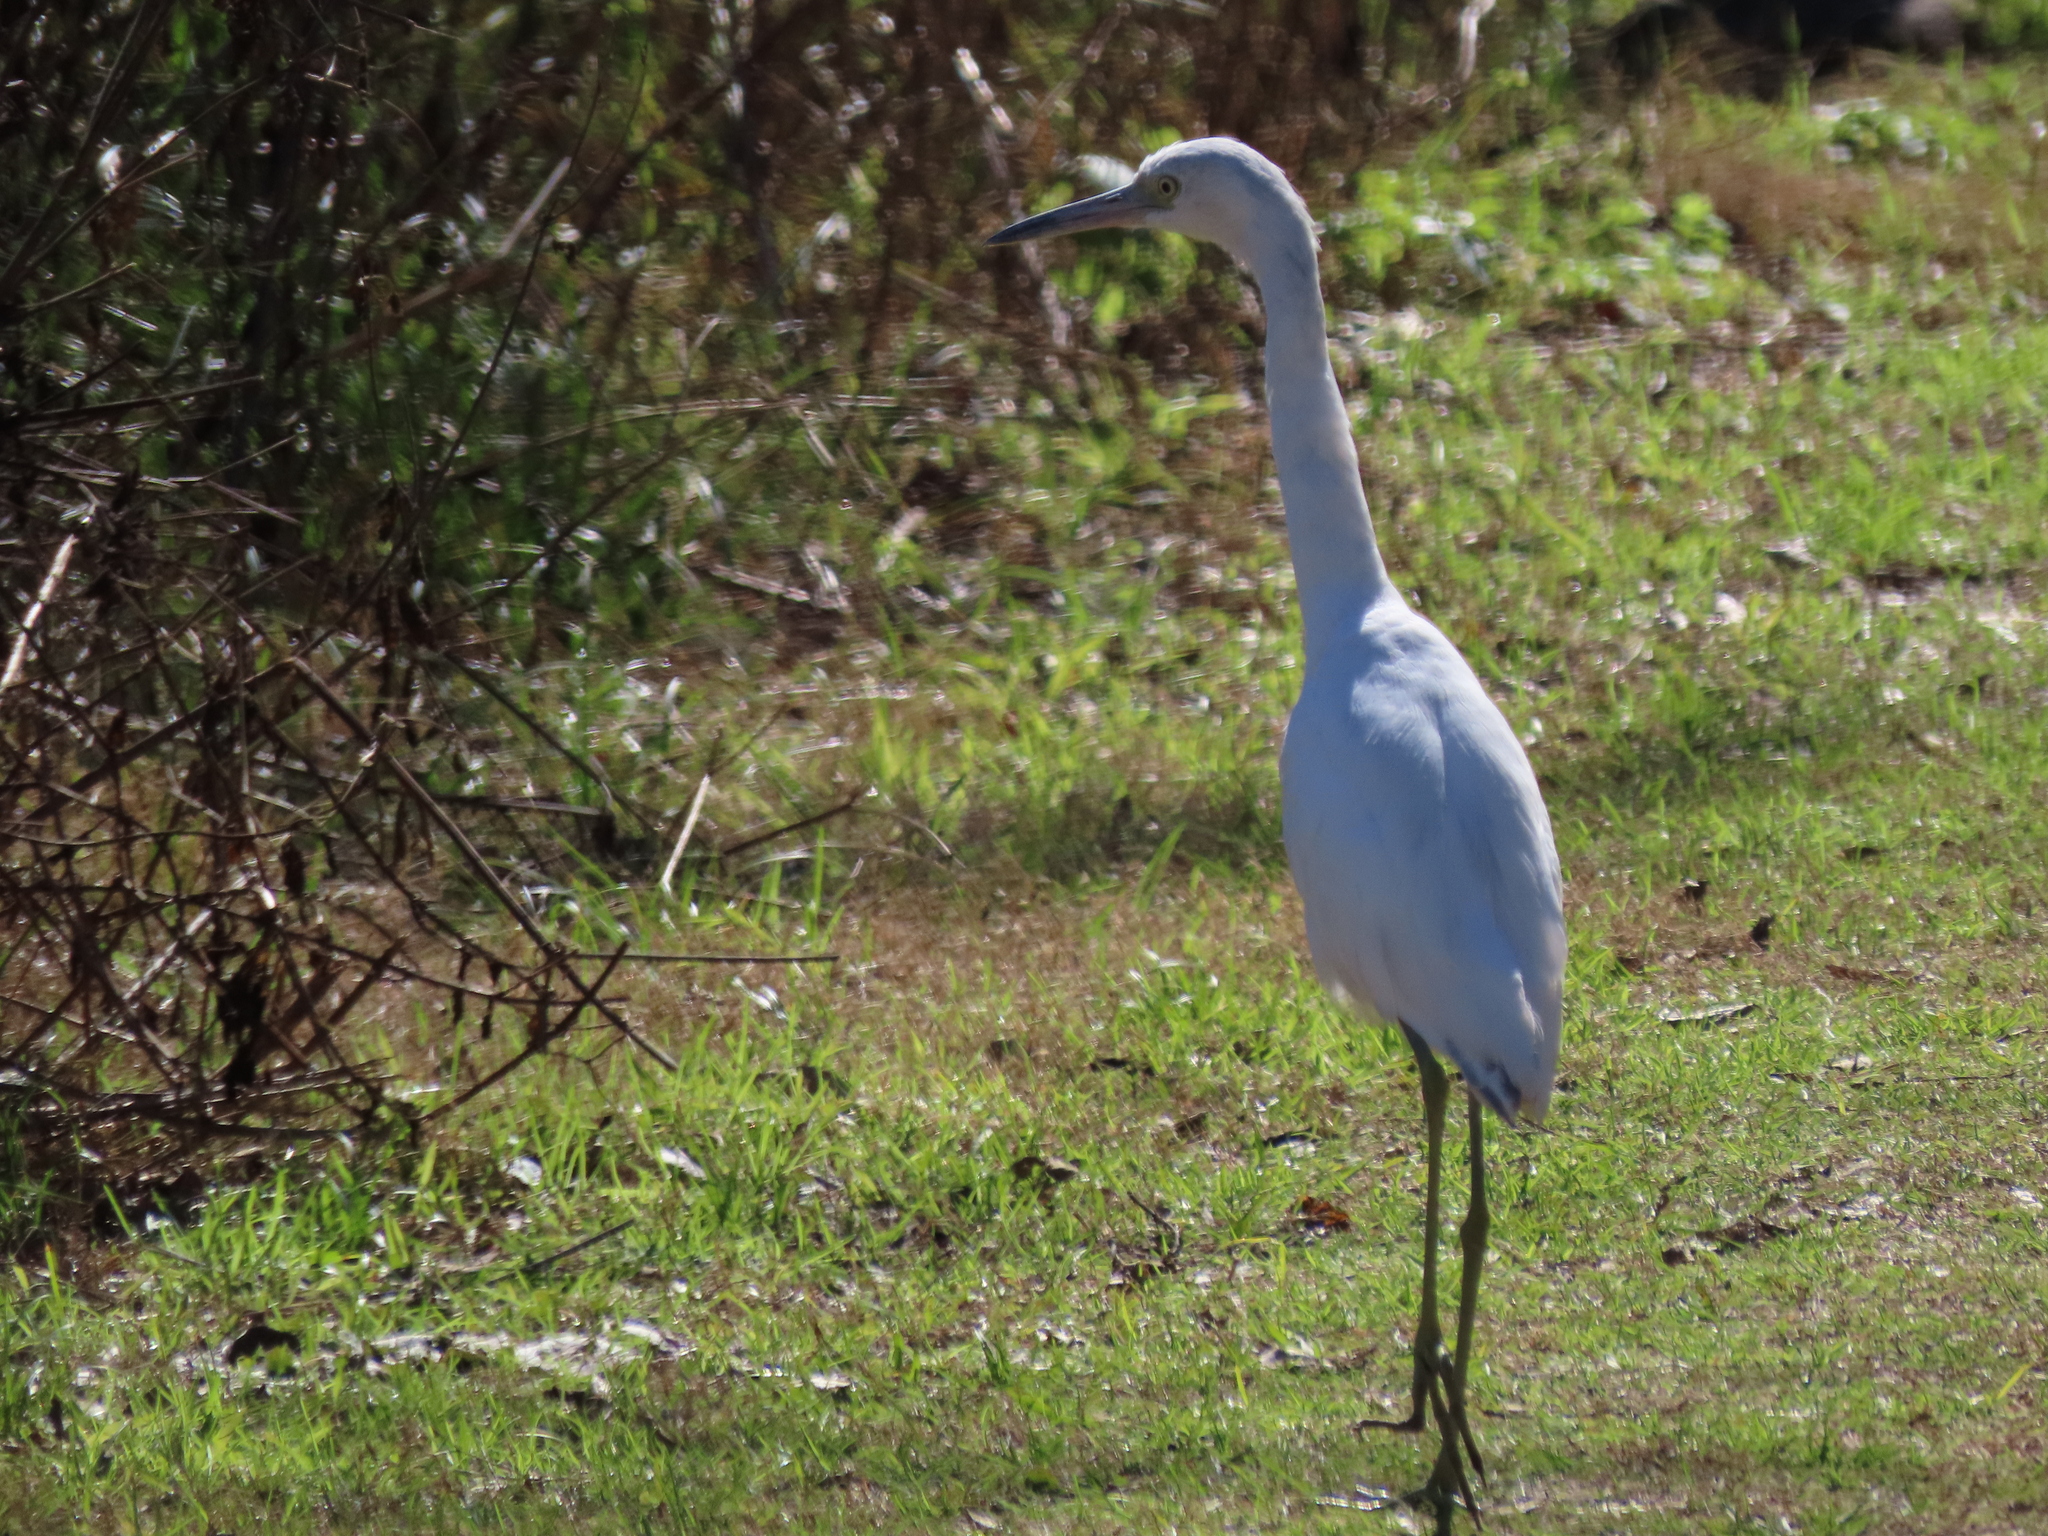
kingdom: Animalia
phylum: Chordata
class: Aves
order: Pelecaniformes
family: Ardeidae
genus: Egretta
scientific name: Egretta caerulea
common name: Little blue heron
